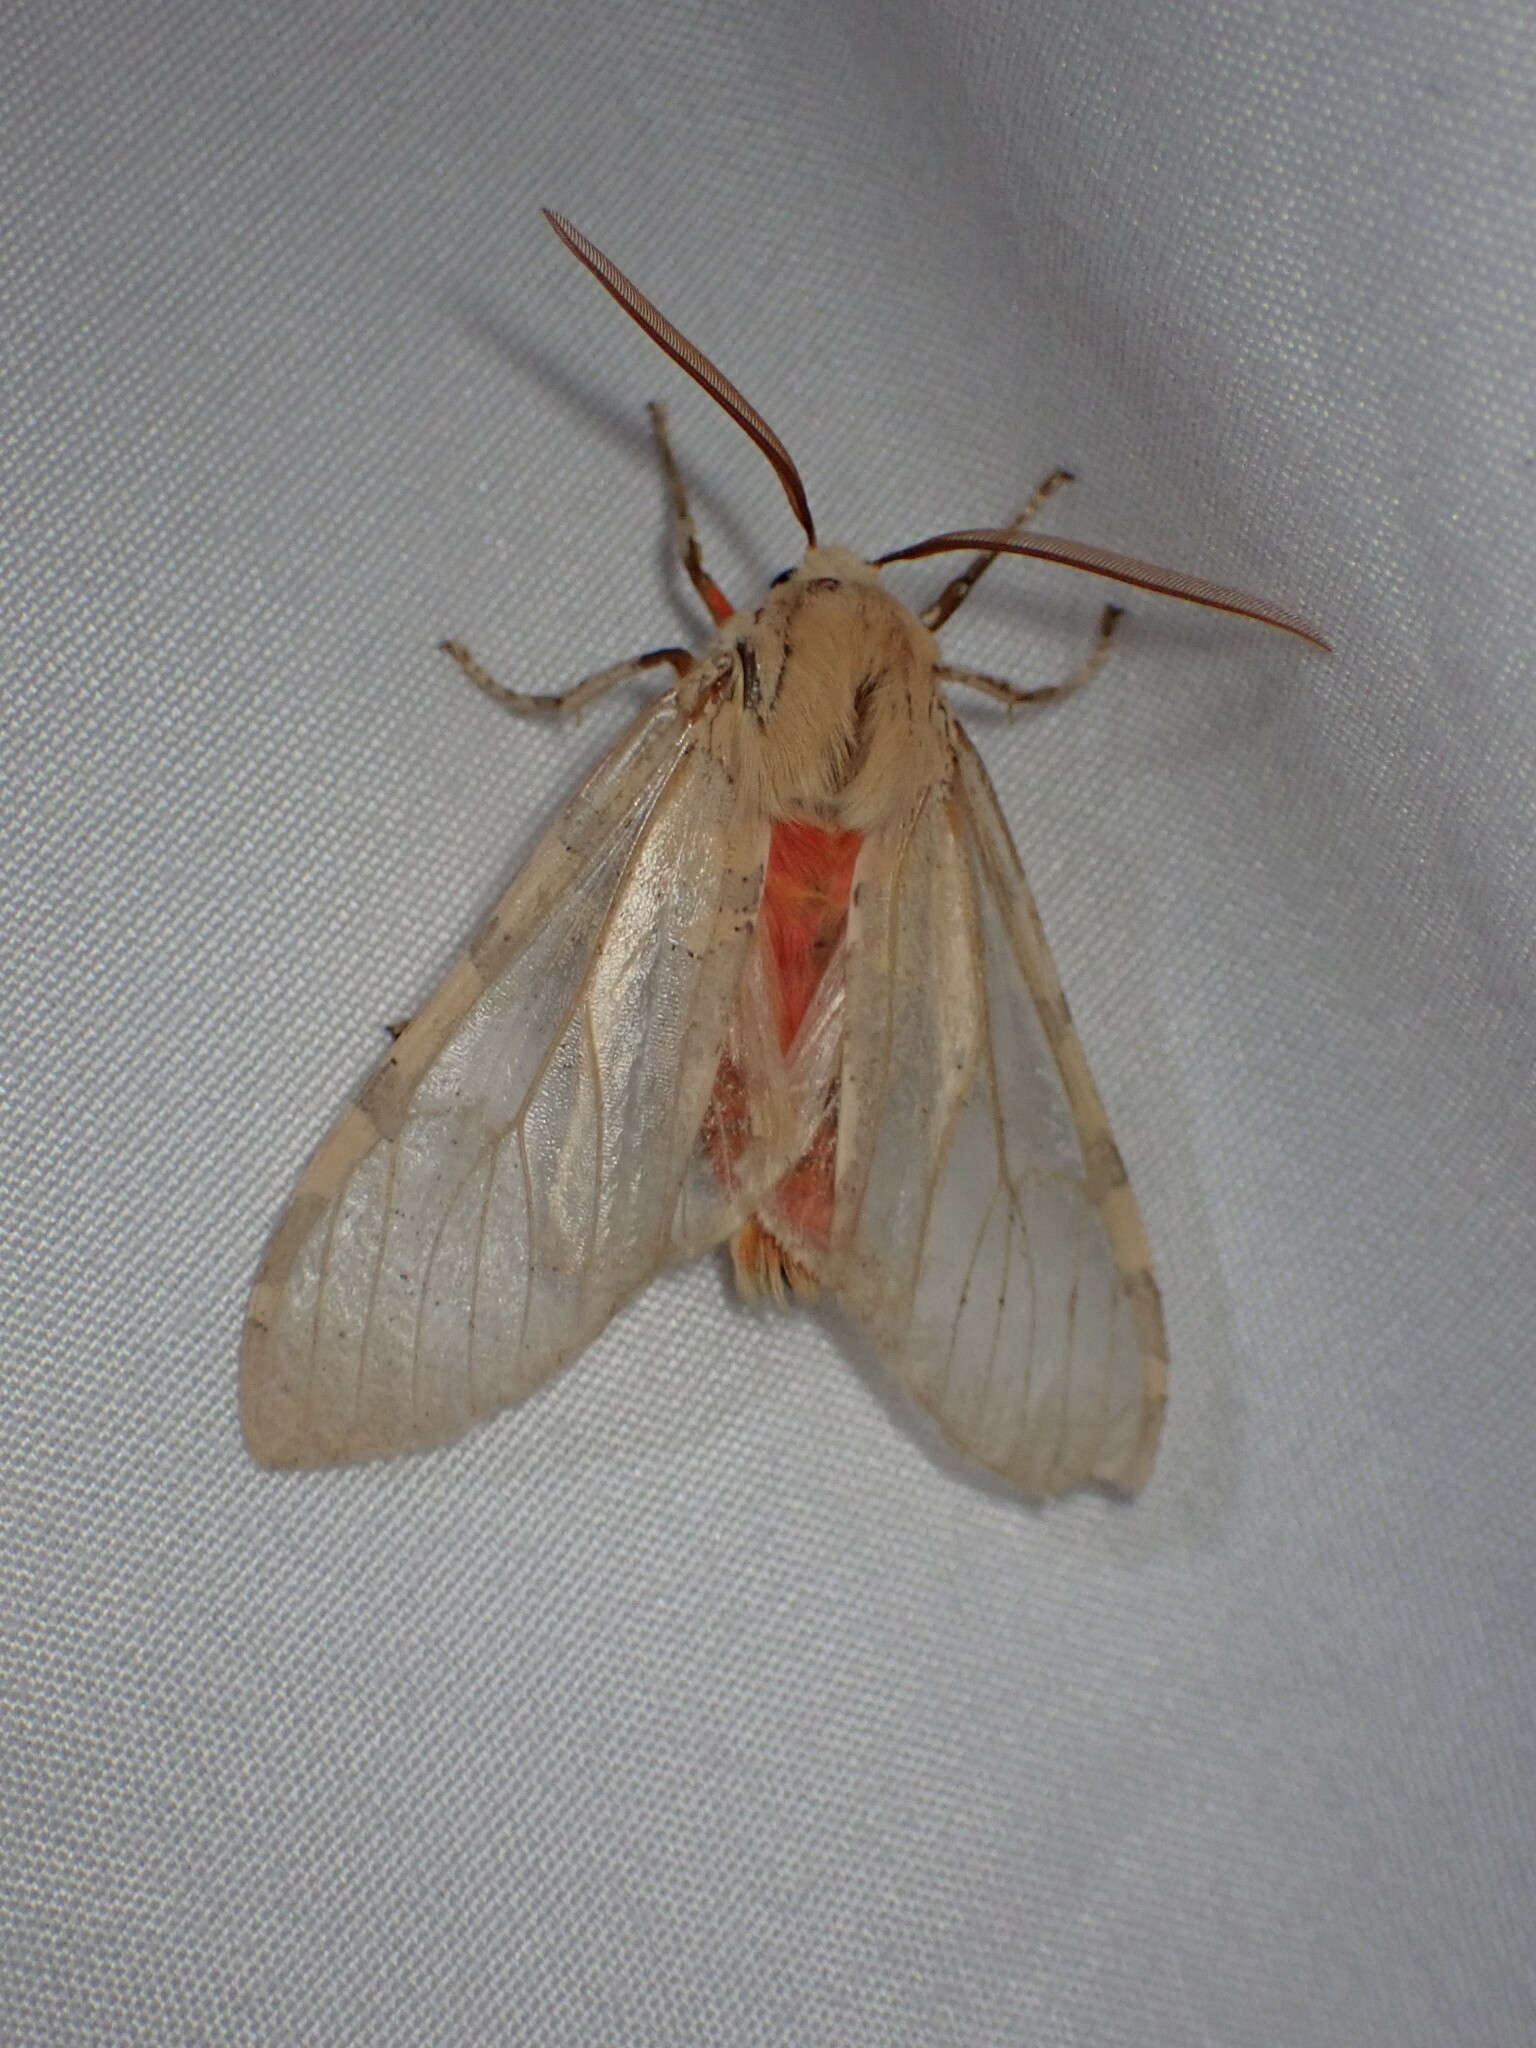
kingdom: Animalia
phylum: Arthropoda
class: Insecta
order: Lepidoptera
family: Erebidae
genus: Hemihyalea
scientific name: Hemihyalea edwardsii
